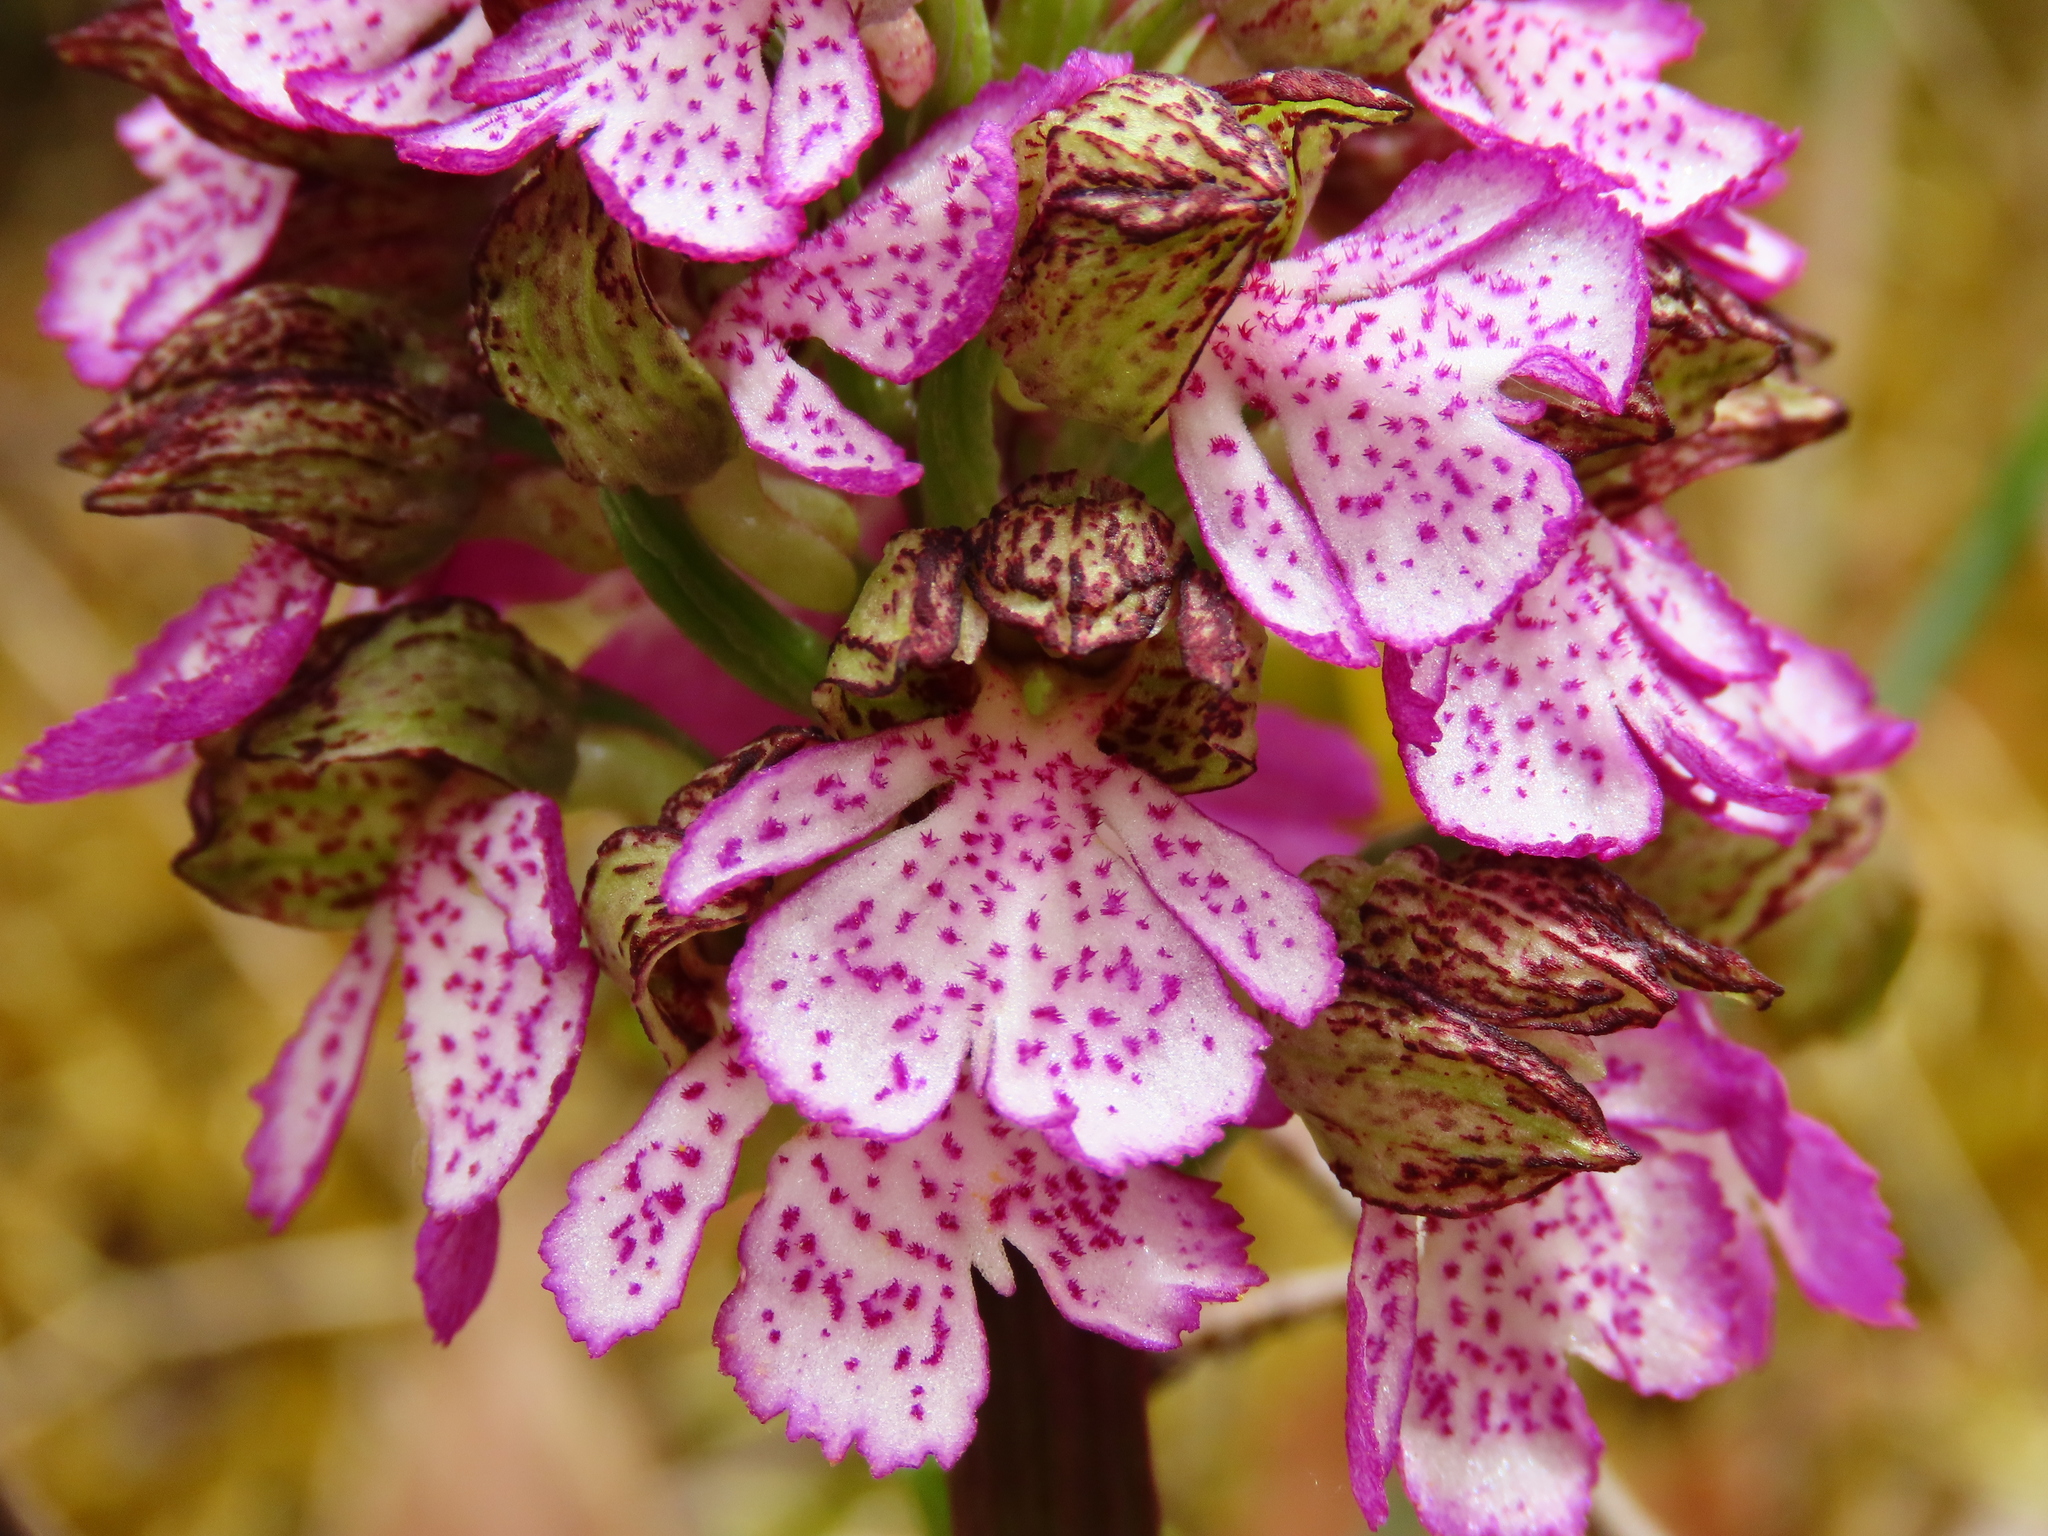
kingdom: Plantae
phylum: Tracheophyta
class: Liliopsida
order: Asparagales
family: Orchidaceae
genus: Orchis
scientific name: Orchis purpurea
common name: Lady orchid
